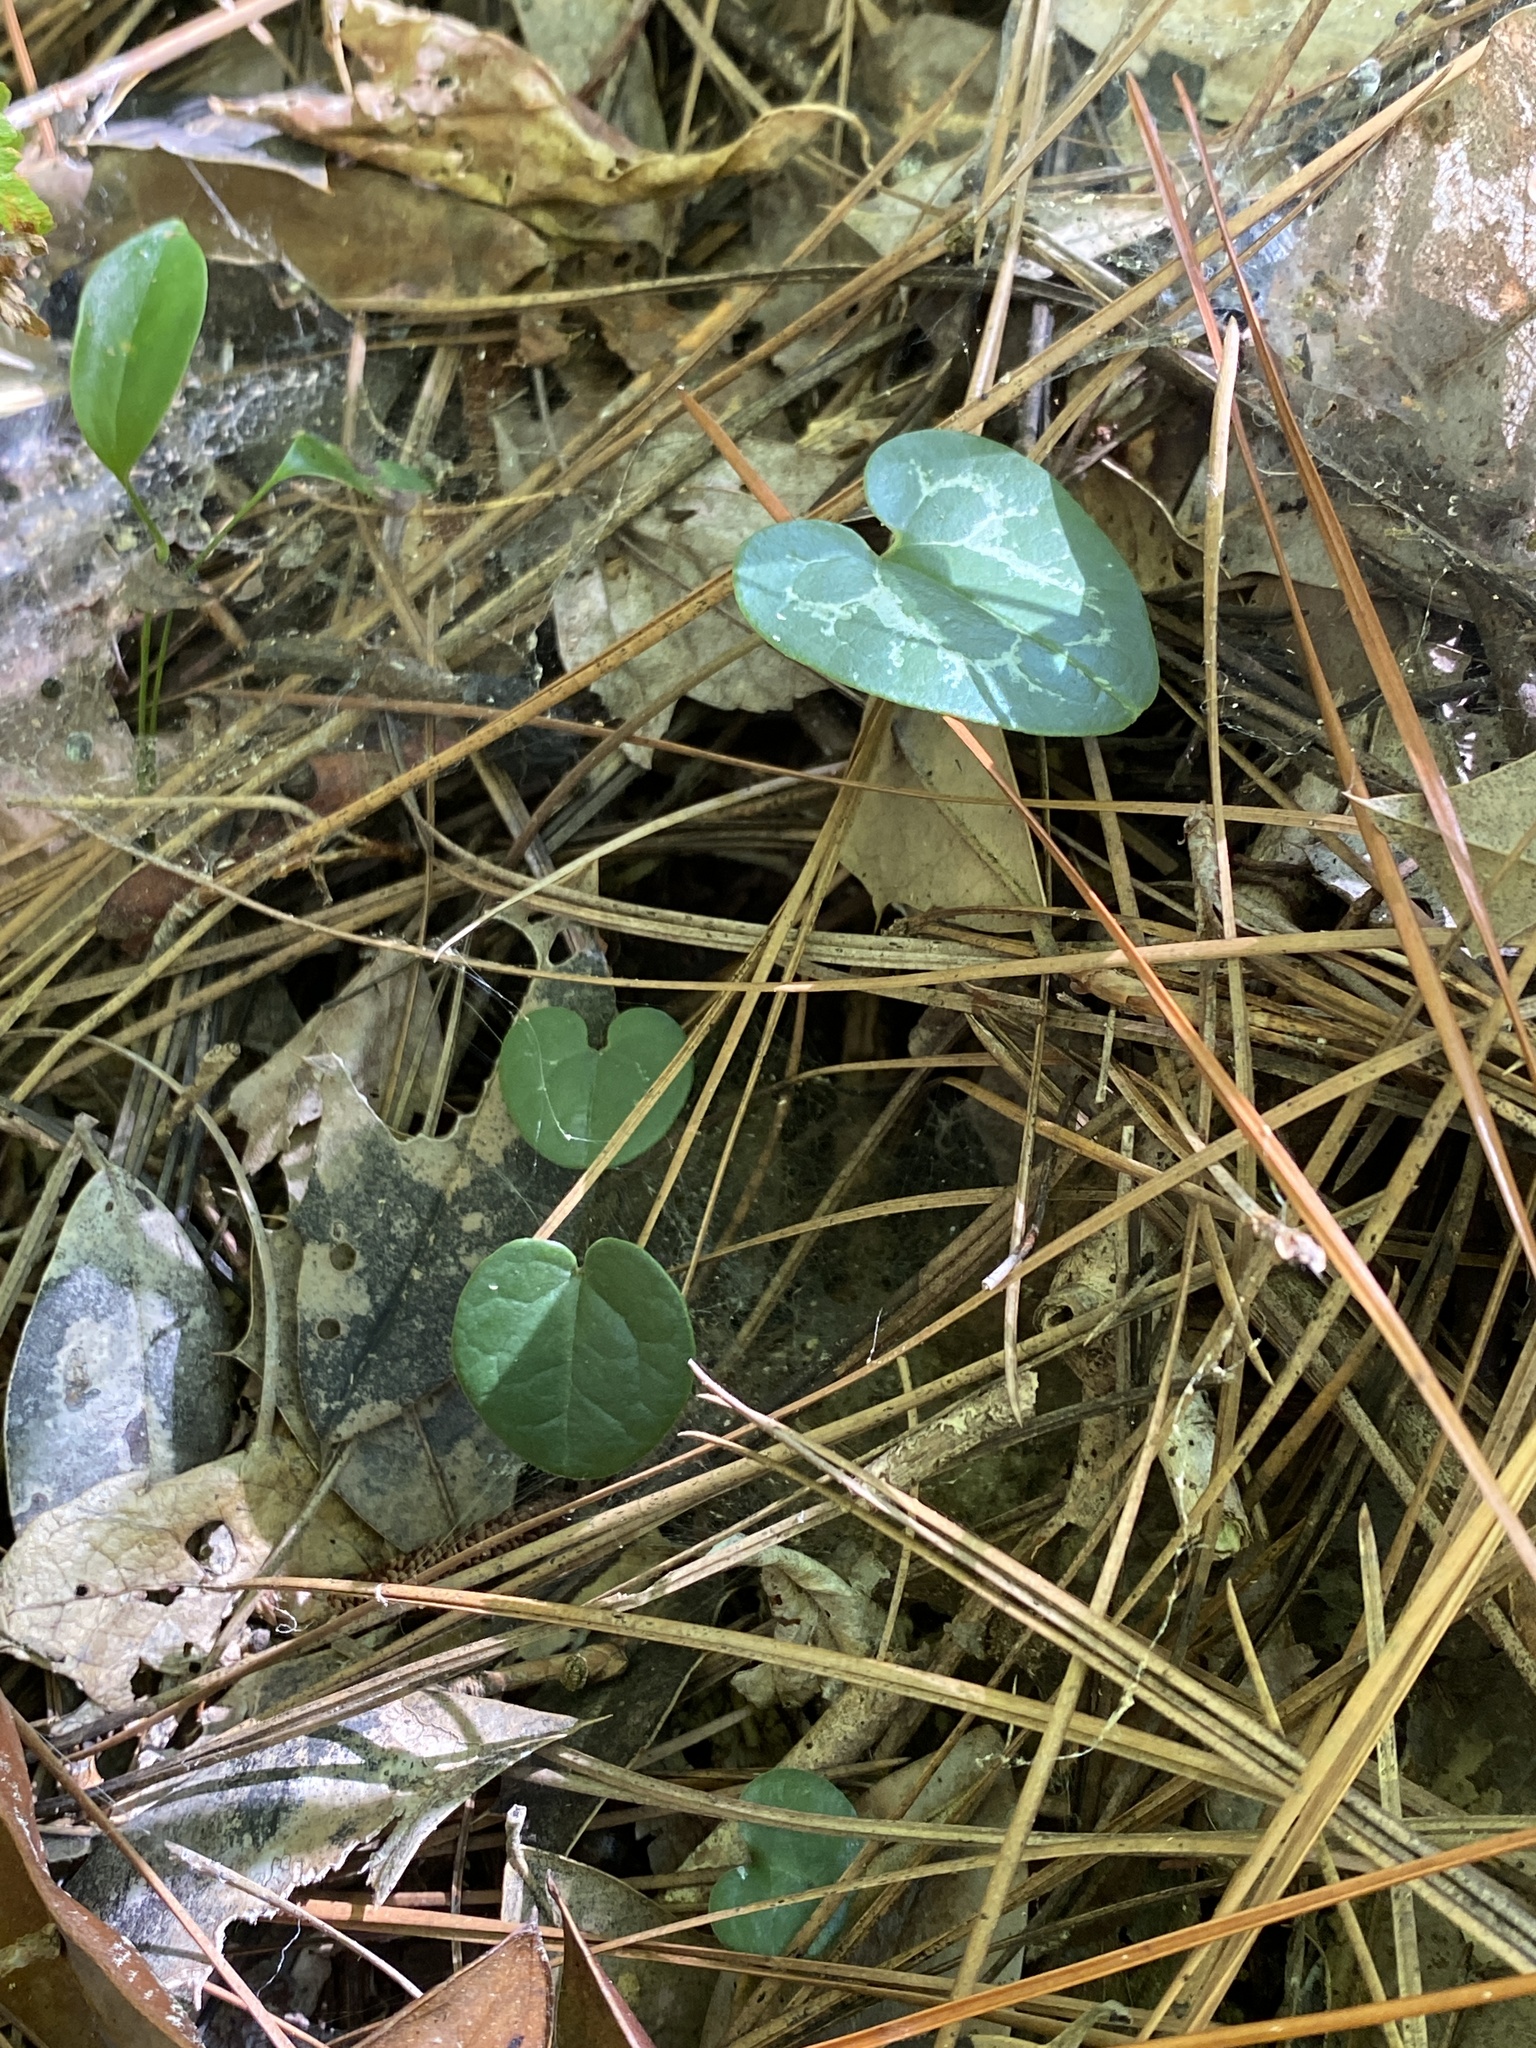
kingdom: Plantae
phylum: Tracheophyta
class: Magnoliopsida
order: Piperales
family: Aristolochiaceae
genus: Hexastylis
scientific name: Hexastylis sorriei
